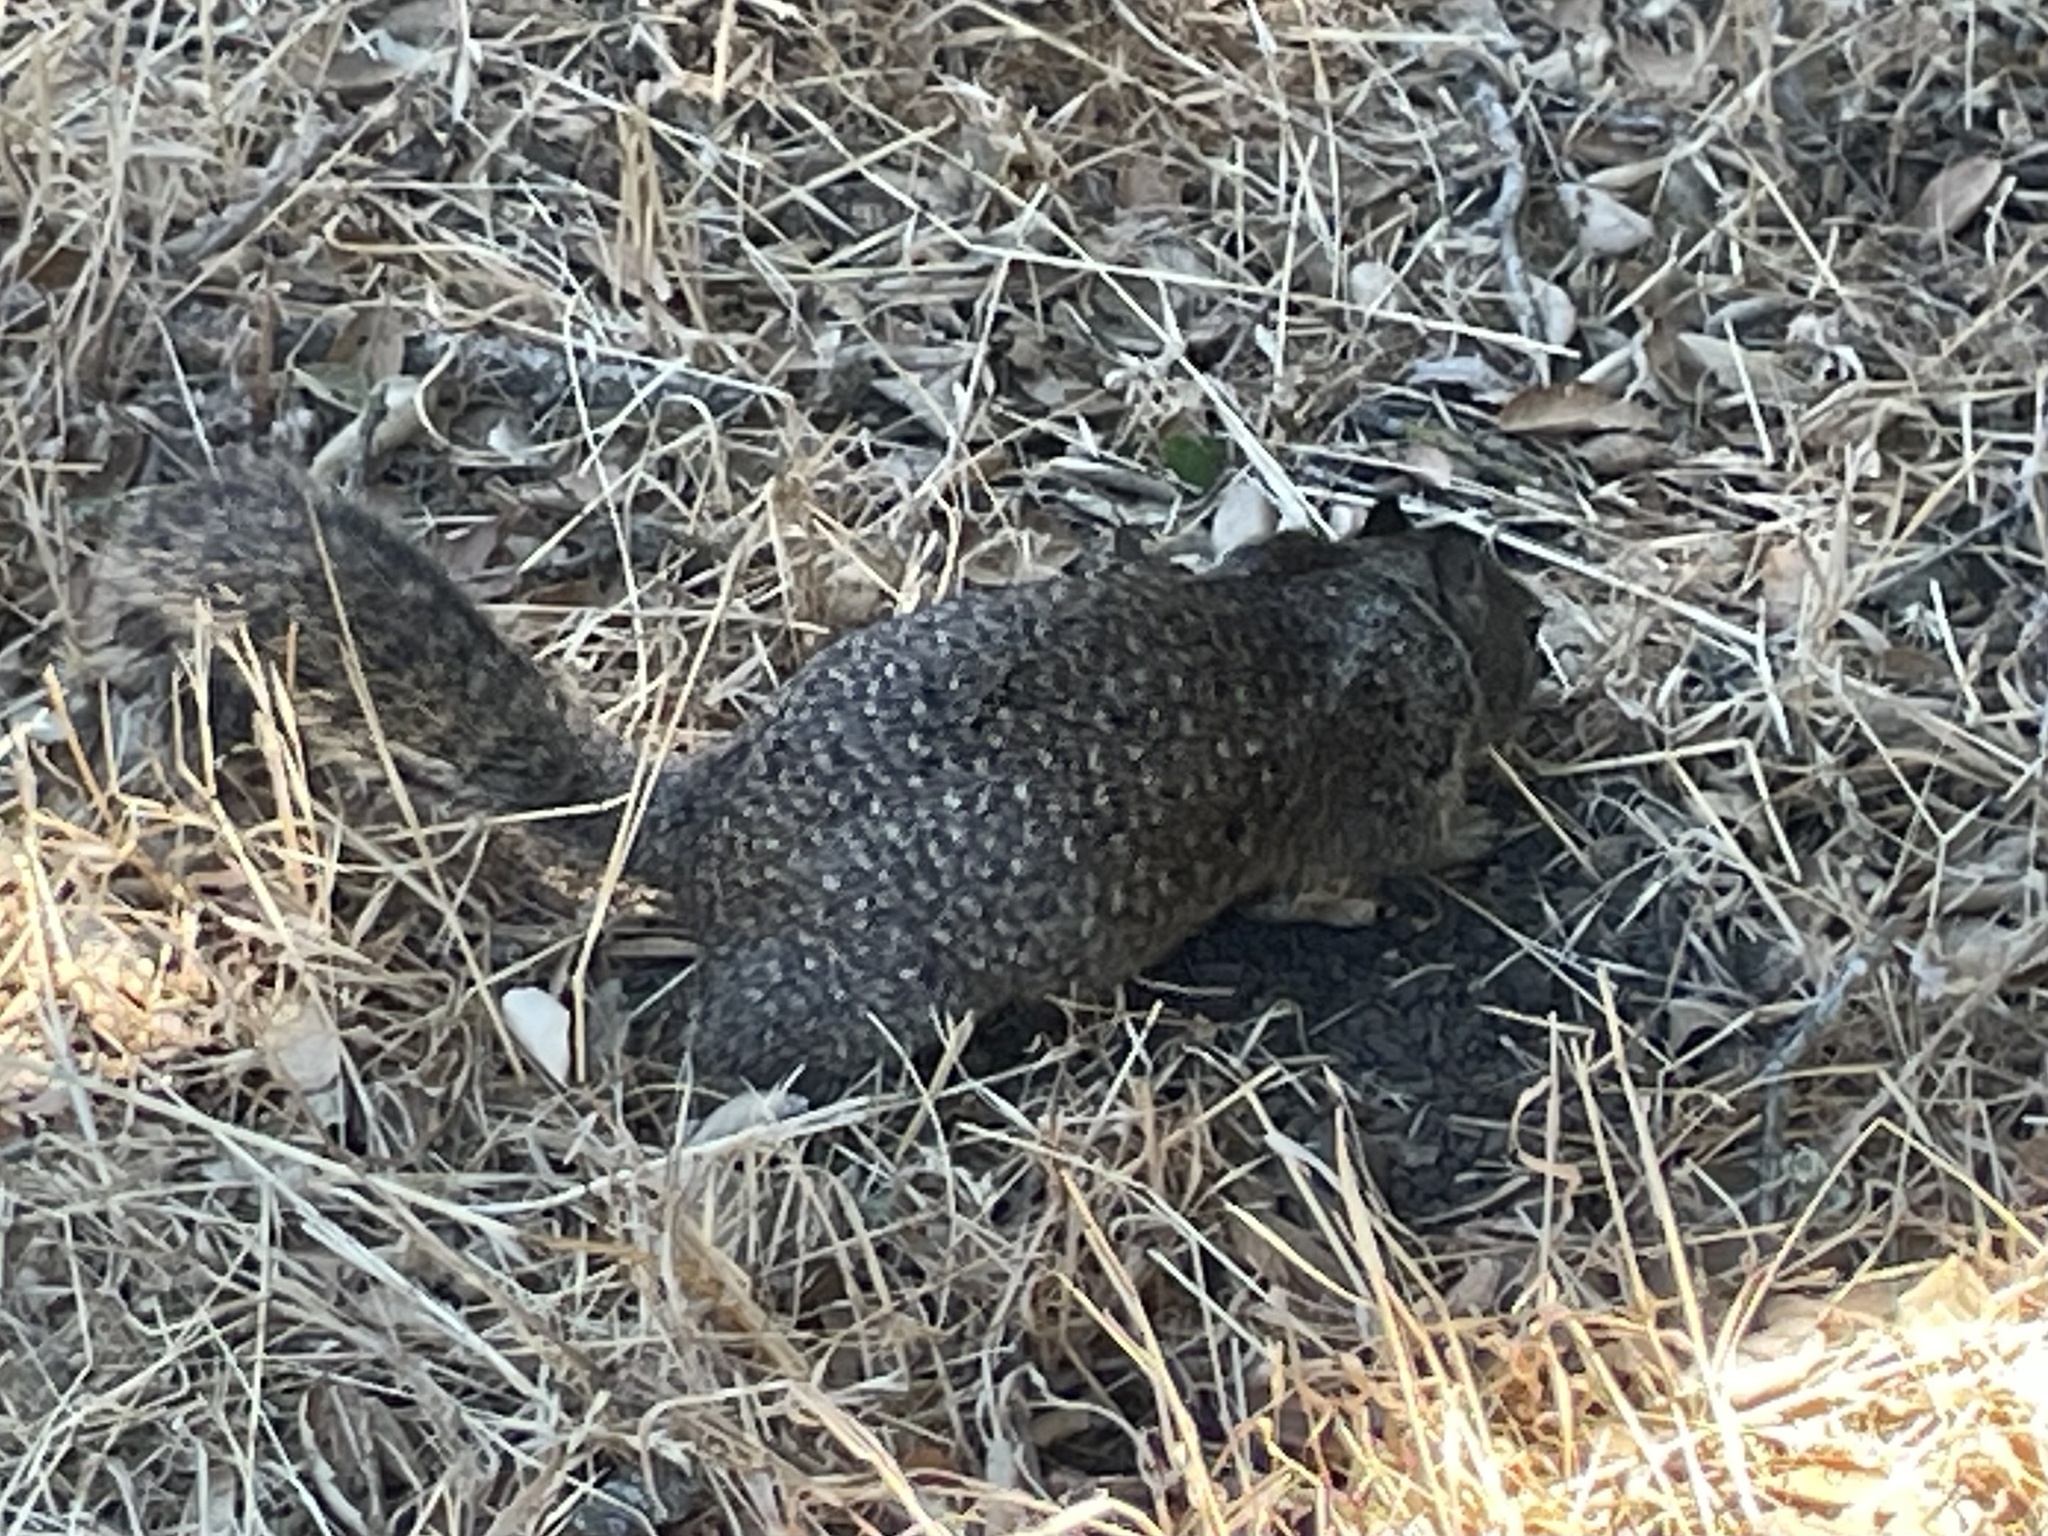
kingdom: Animalia
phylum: Chordata
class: Mammalia
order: Rodentia
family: Sciuridae
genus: Otospermophilus
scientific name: Otospermophilus beecheyi
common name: California ground squirrel
